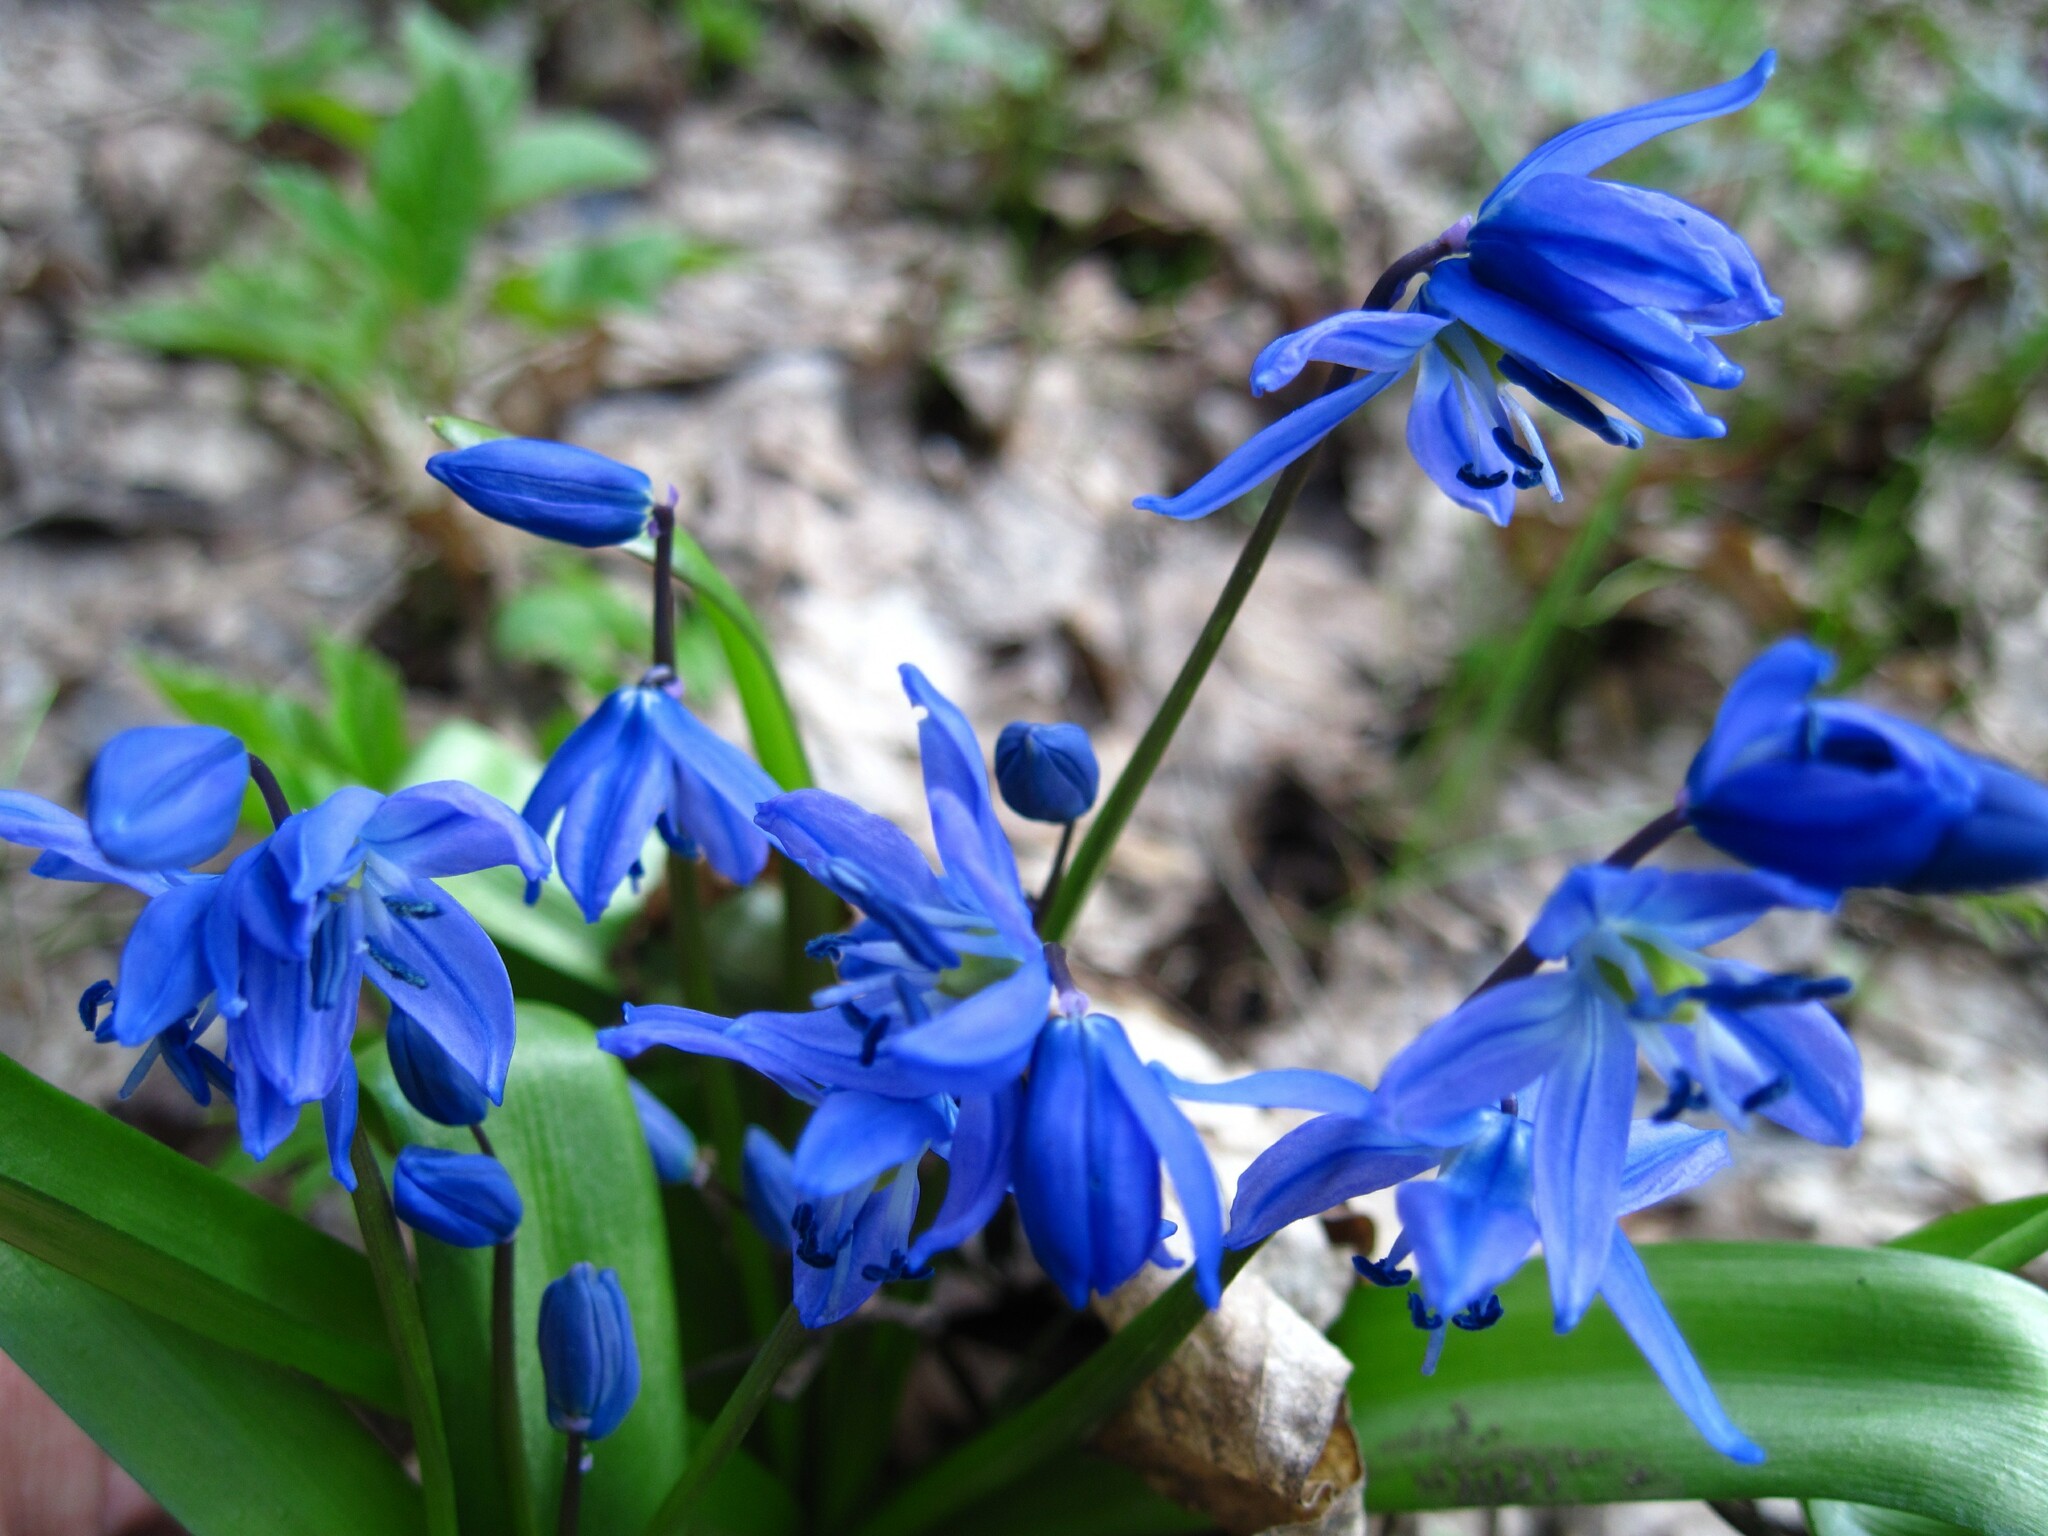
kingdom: Plantae
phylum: Tracheophyta
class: Liliopsida
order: Asparagales
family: Asparagaceae
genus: Scilla
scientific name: Scilla siberica
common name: Siberian squill
